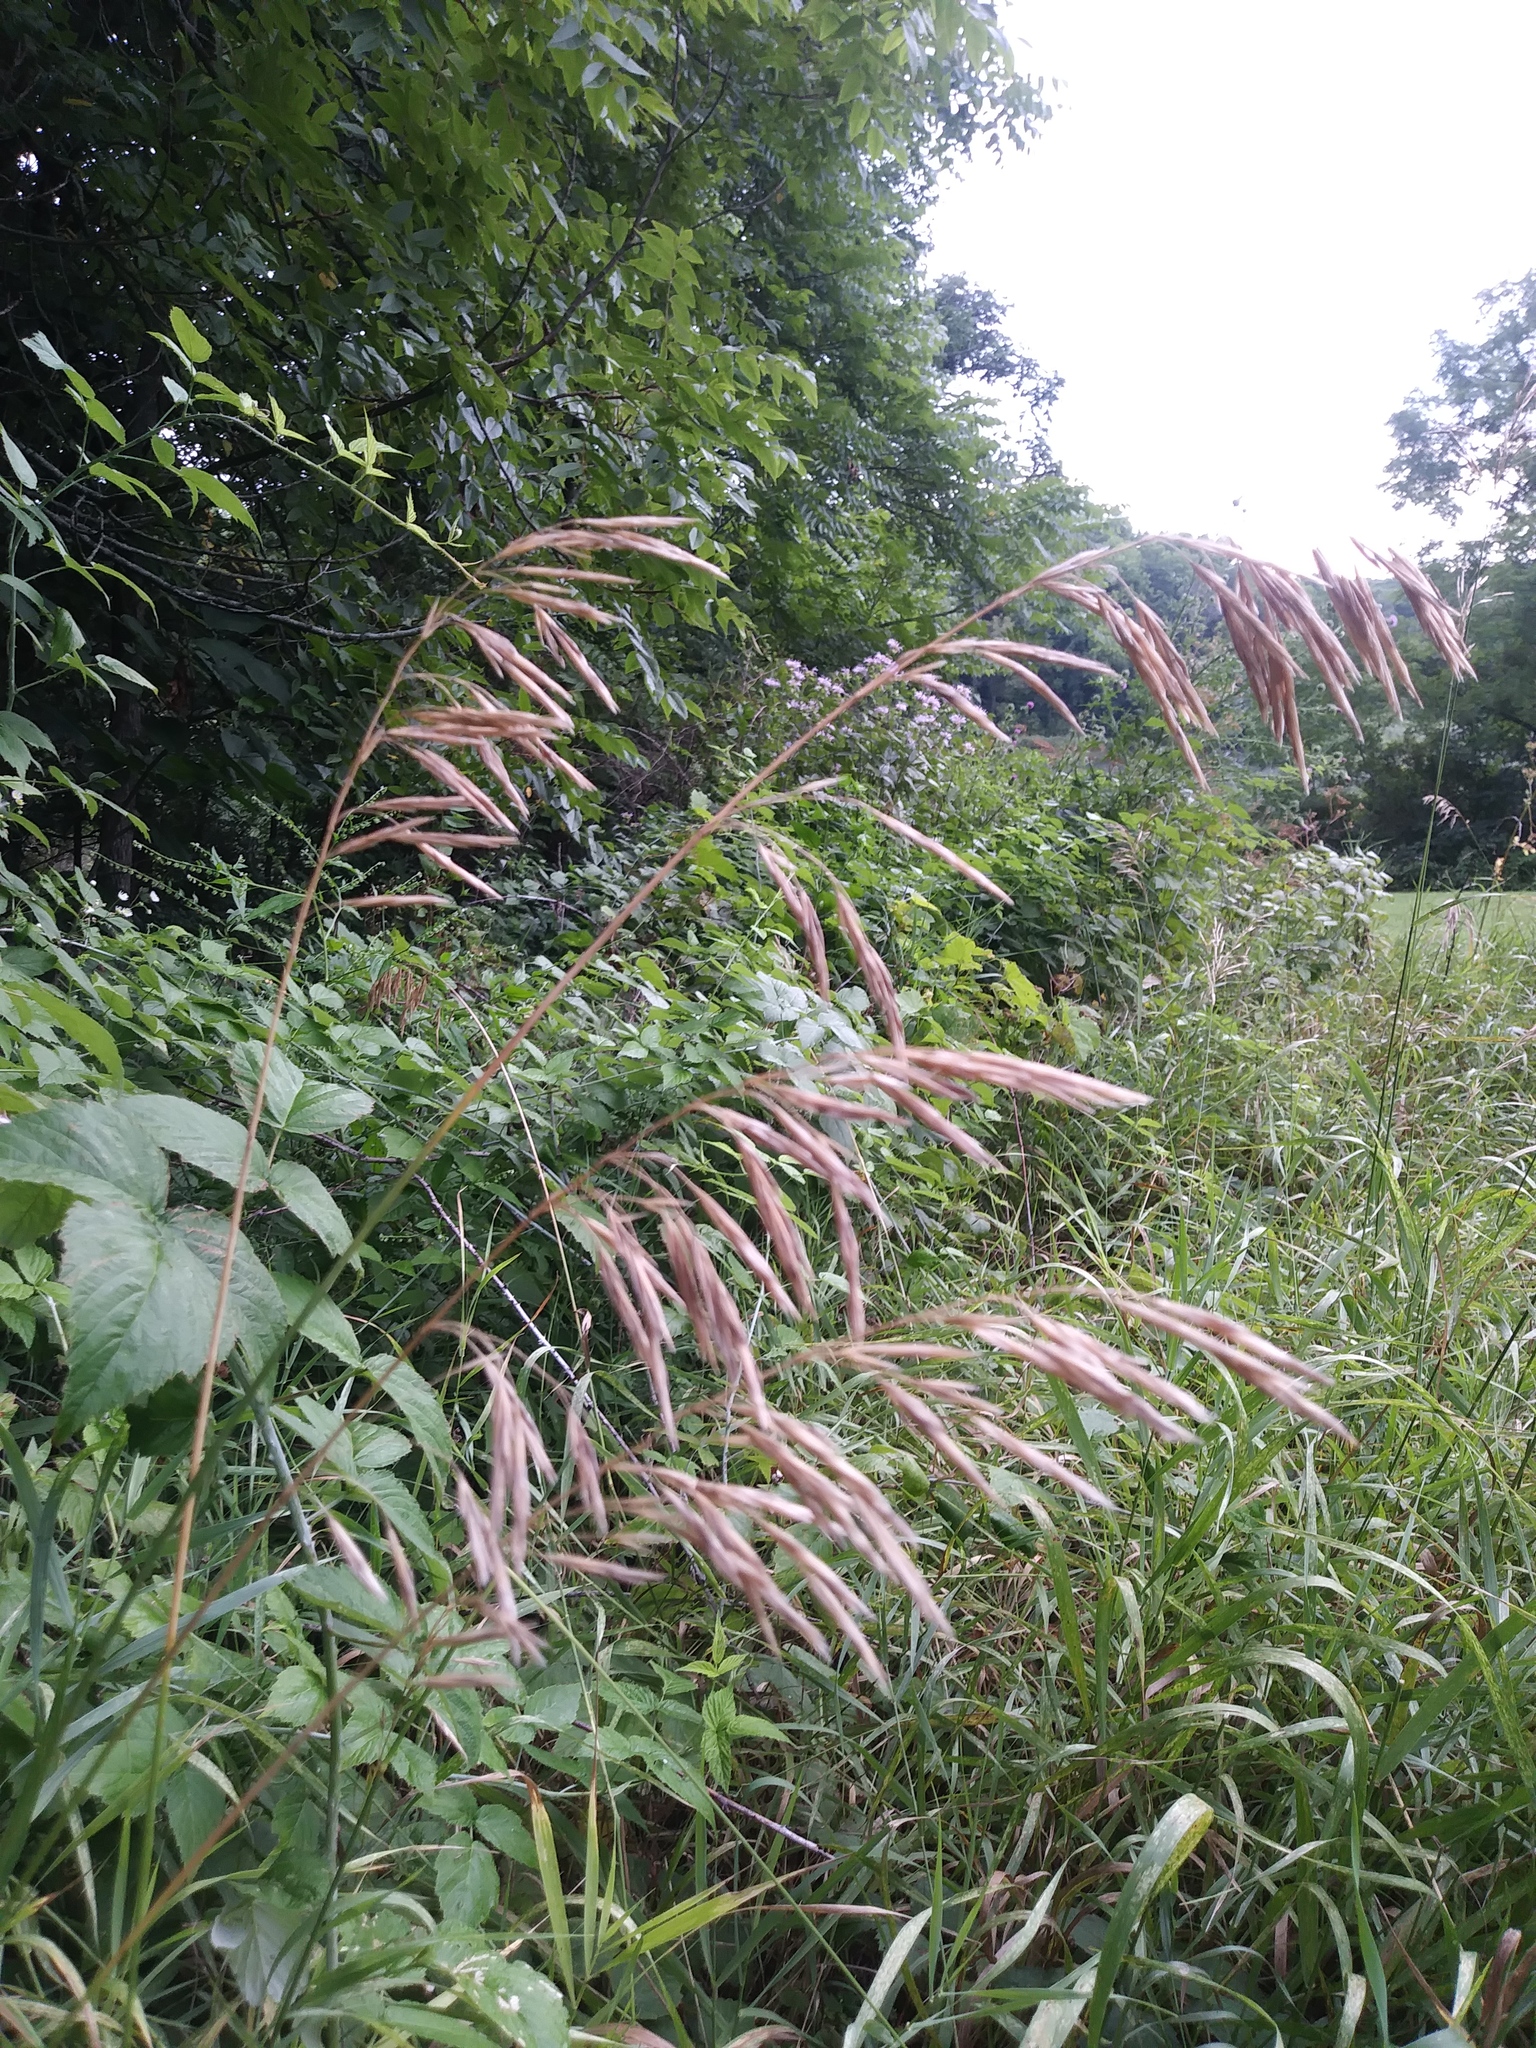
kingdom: Plantae
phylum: Tracheophyta
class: Liliopsida
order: Poales
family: Poaceae
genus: Bromus
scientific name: Bromus inermis
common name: Smooth brome
